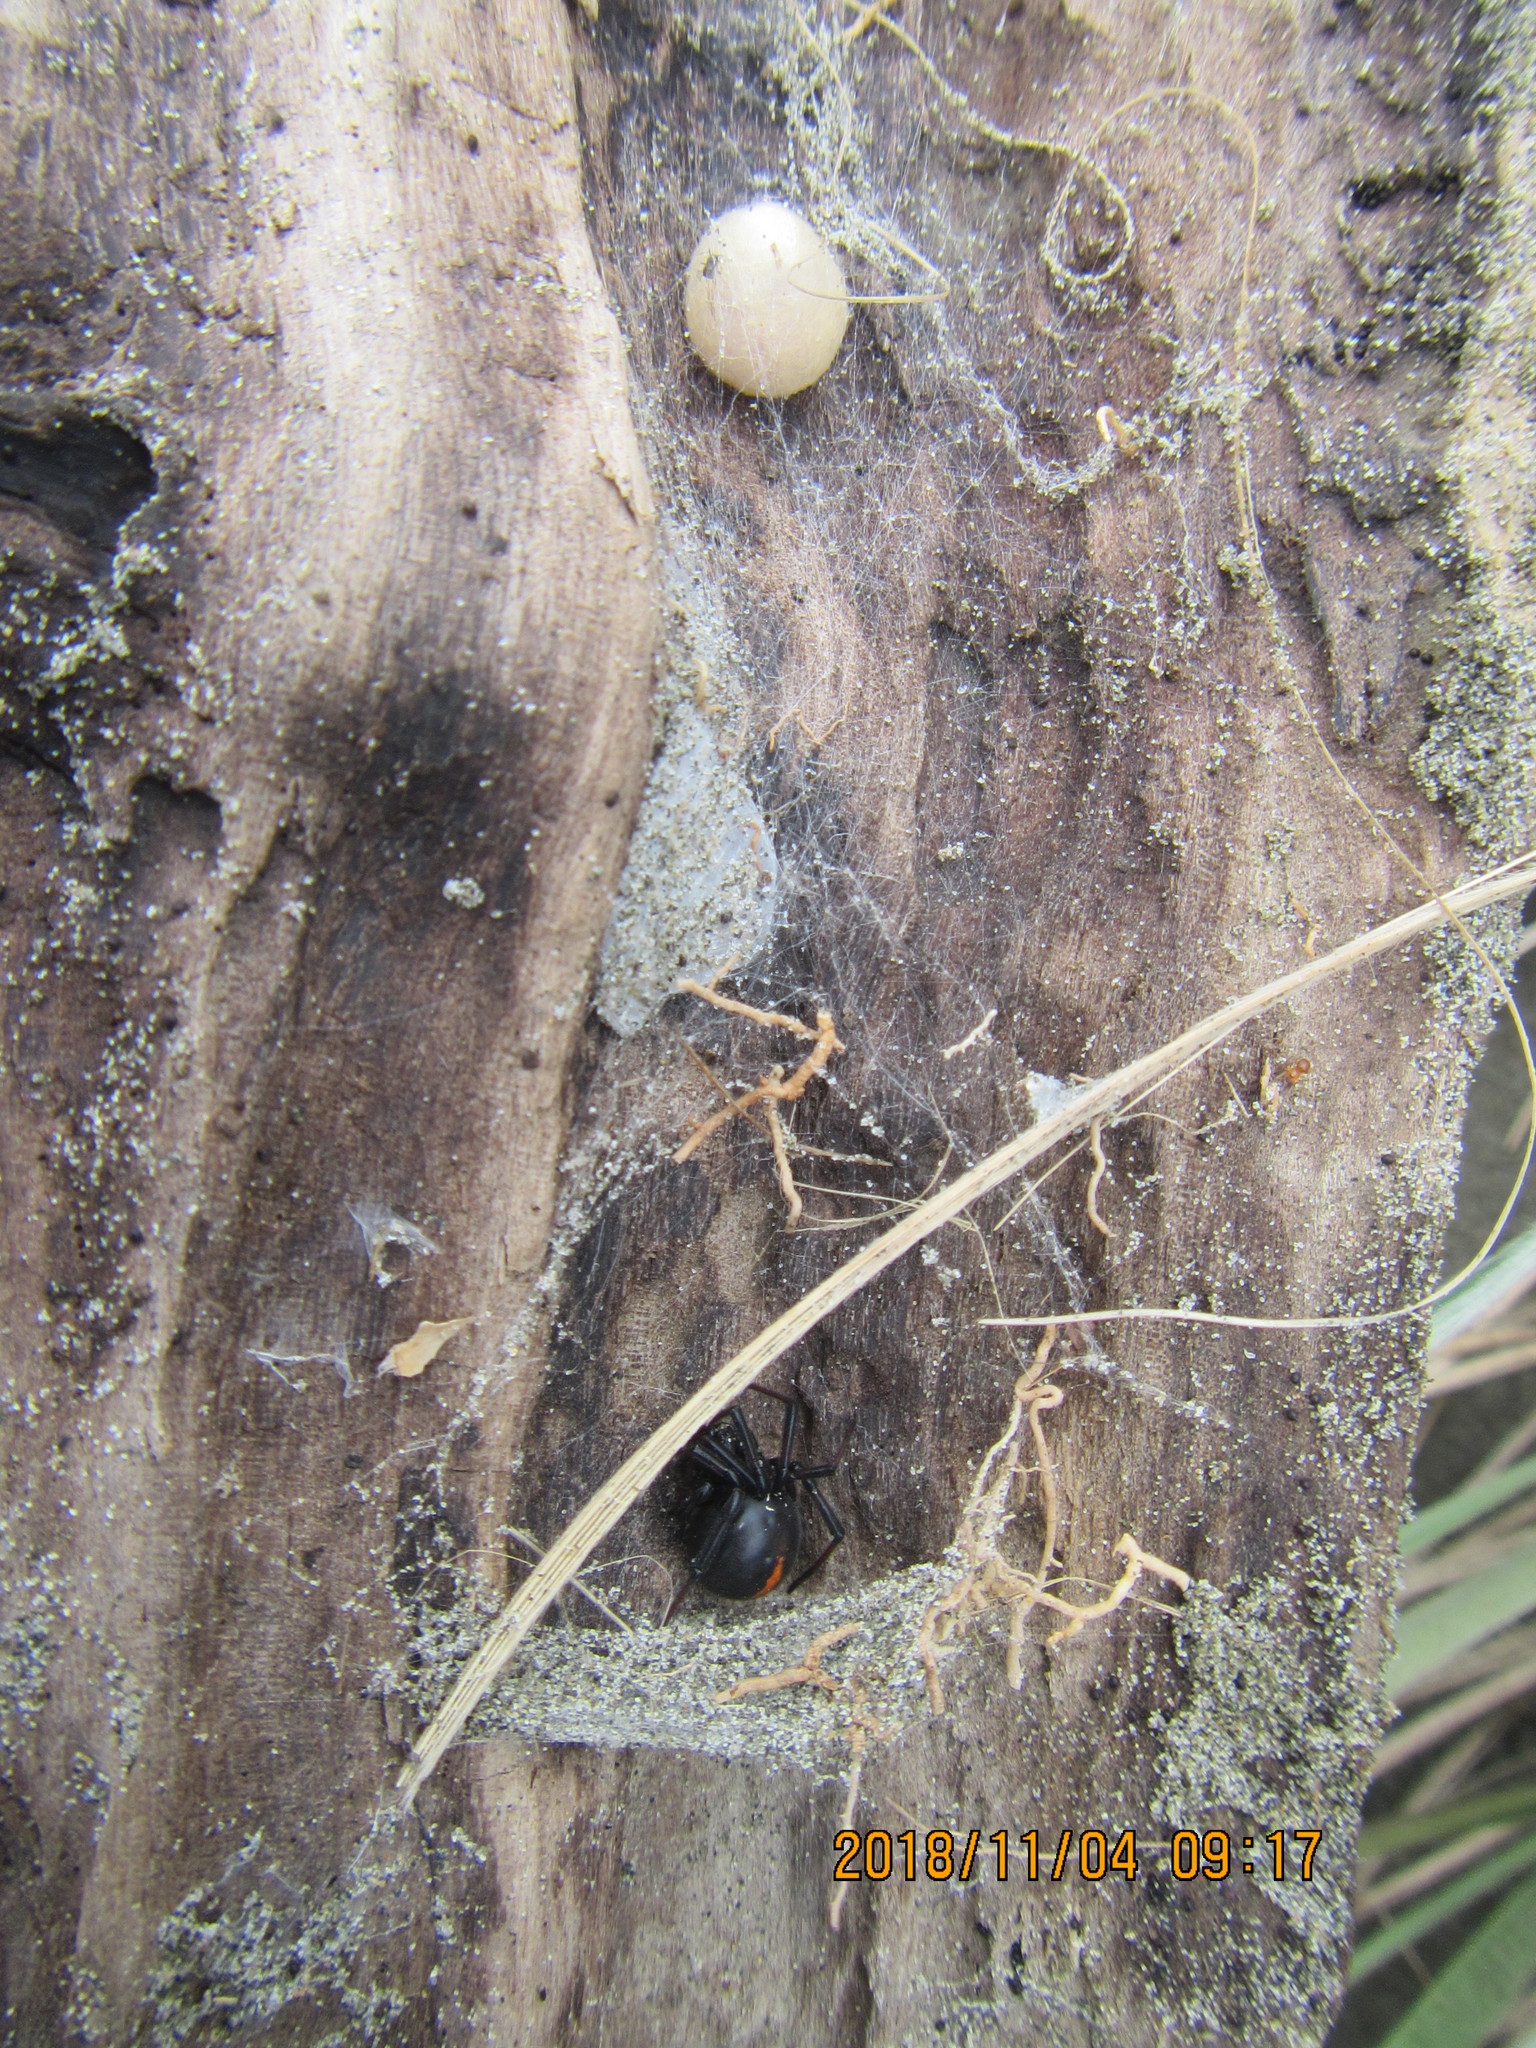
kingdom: Animalia
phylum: Arthropoda
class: Arachnida
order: Araneae
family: Theridiidae
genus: Latrodectus
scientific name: Latrodectus katipo
